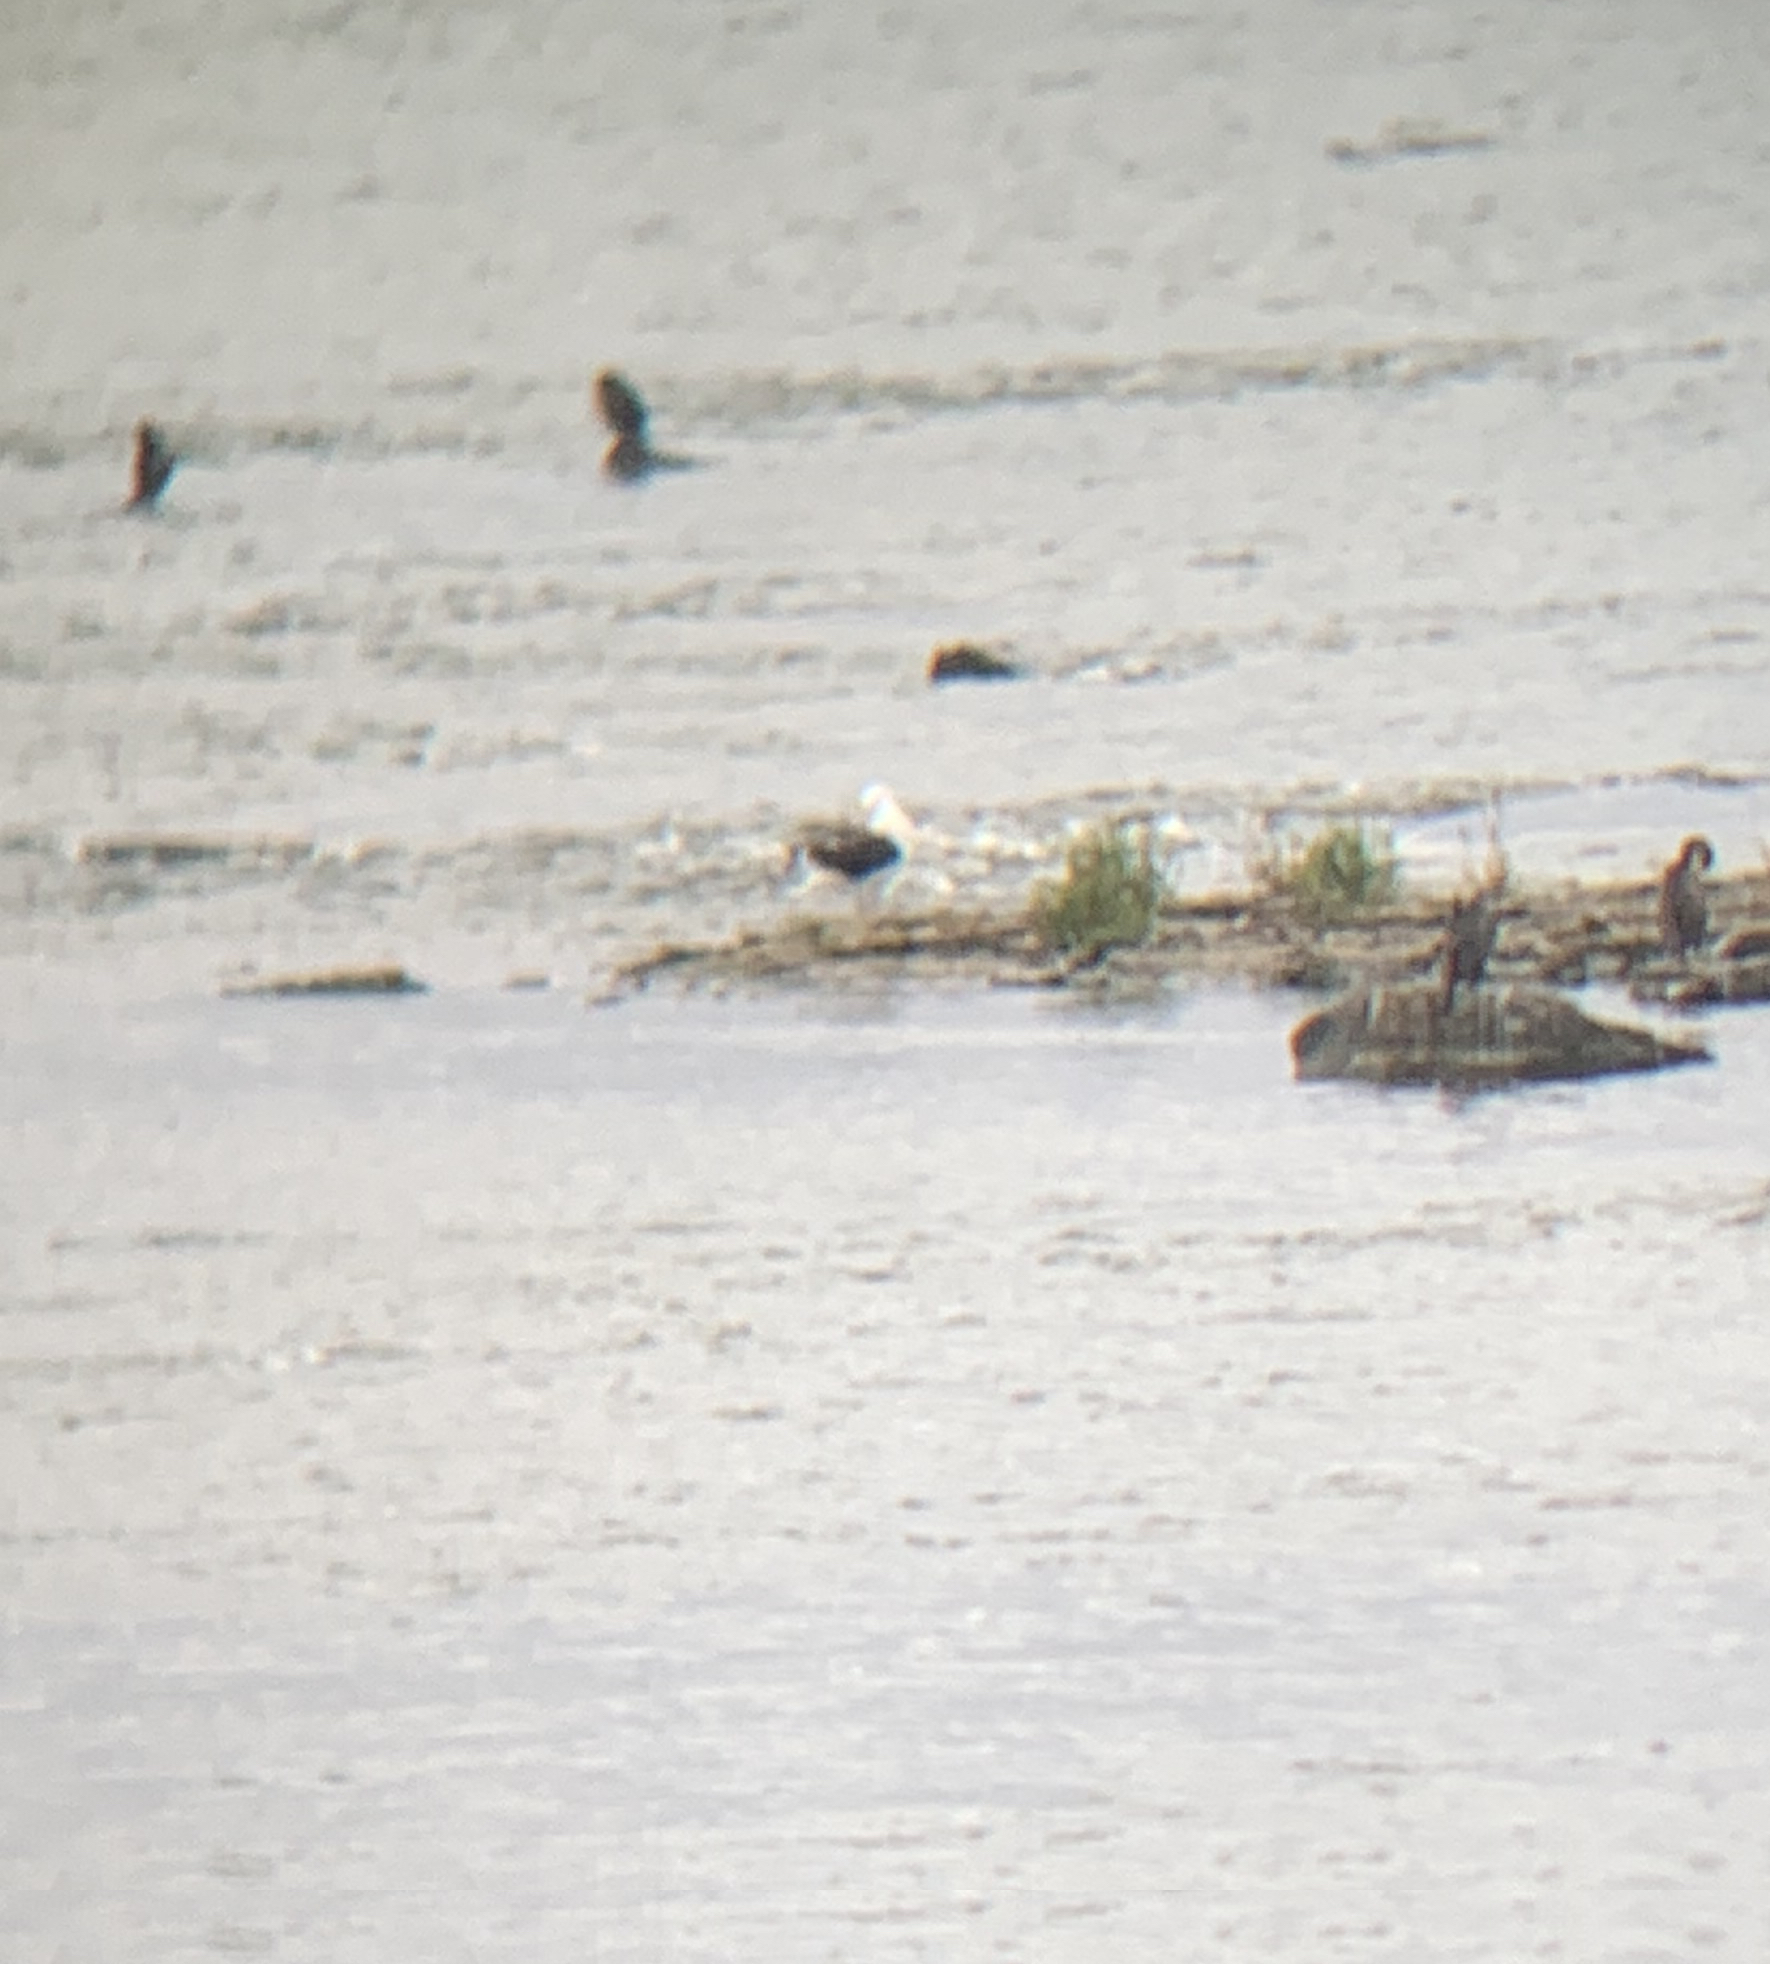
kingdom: Animalia
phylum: Chordata
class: Aves
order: Charadriiformes
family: Laridae
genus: Larus
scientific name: Larus marinus
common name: Great black-backed gull
